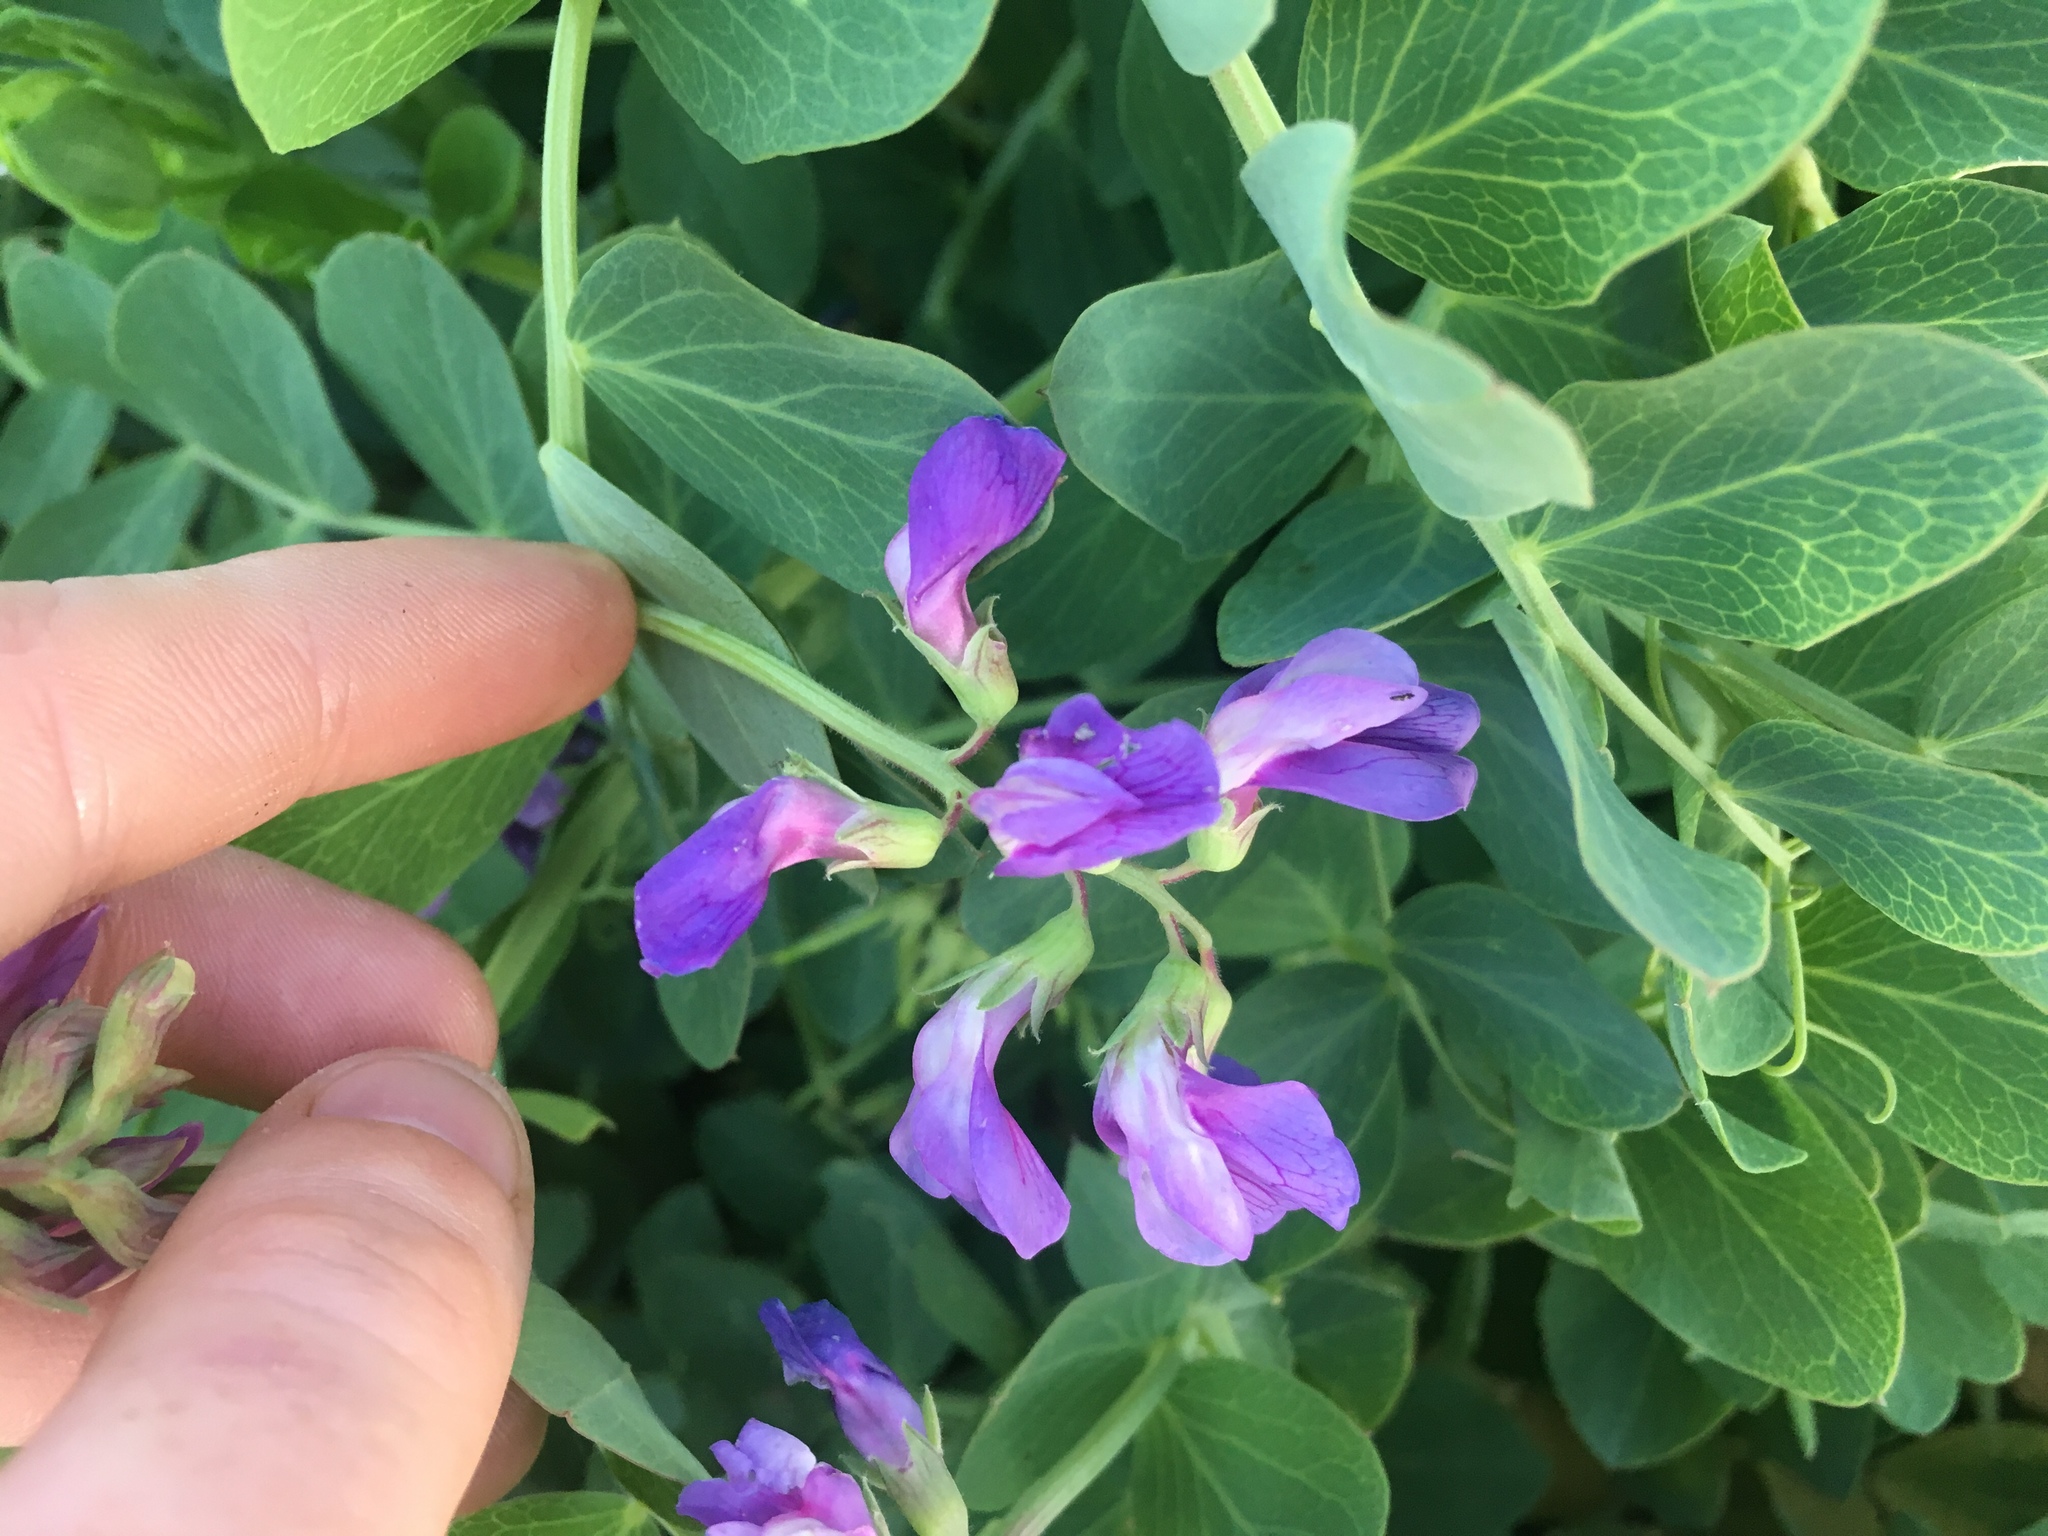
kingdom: Plantae
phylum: Tracheophyta
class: Magnoliopsida
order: Fabales
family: Fabaceae
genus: Lathyrus
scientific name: Lathyrus japonicus
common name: Sea pea
